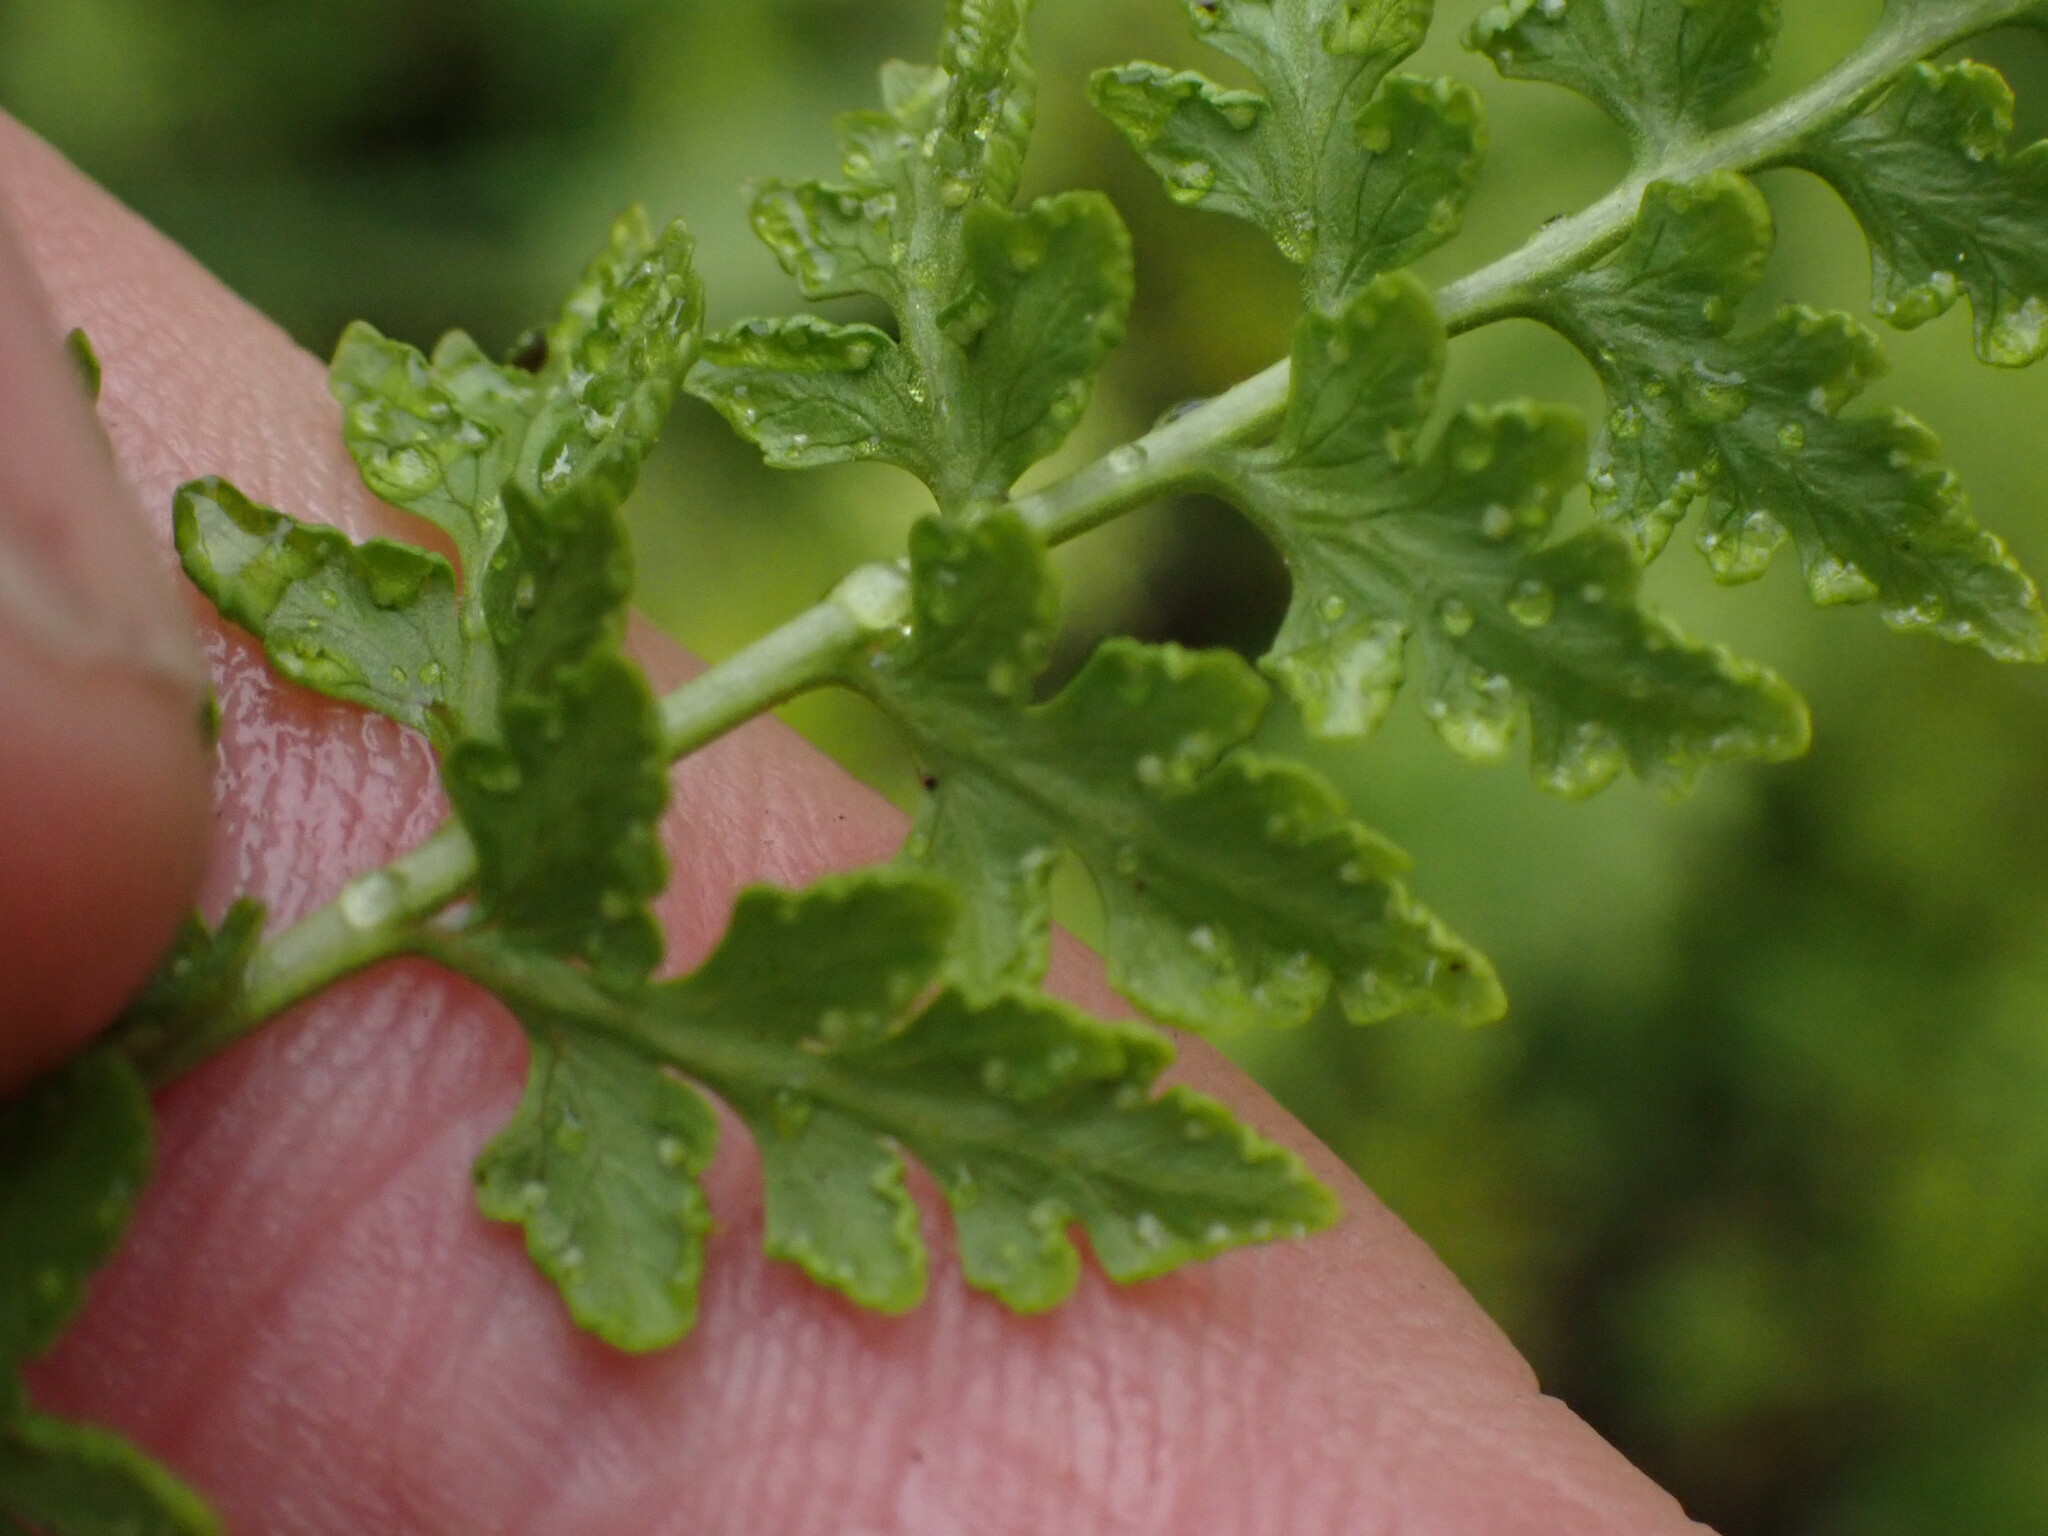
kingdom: Plantae
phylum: Tracheophyta
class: Polypodiopsida
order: Polypodiales
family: Cystopteridaceae
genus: Cystopteris
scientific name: Cystopteris fragilis
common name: Brittle bladder fern
